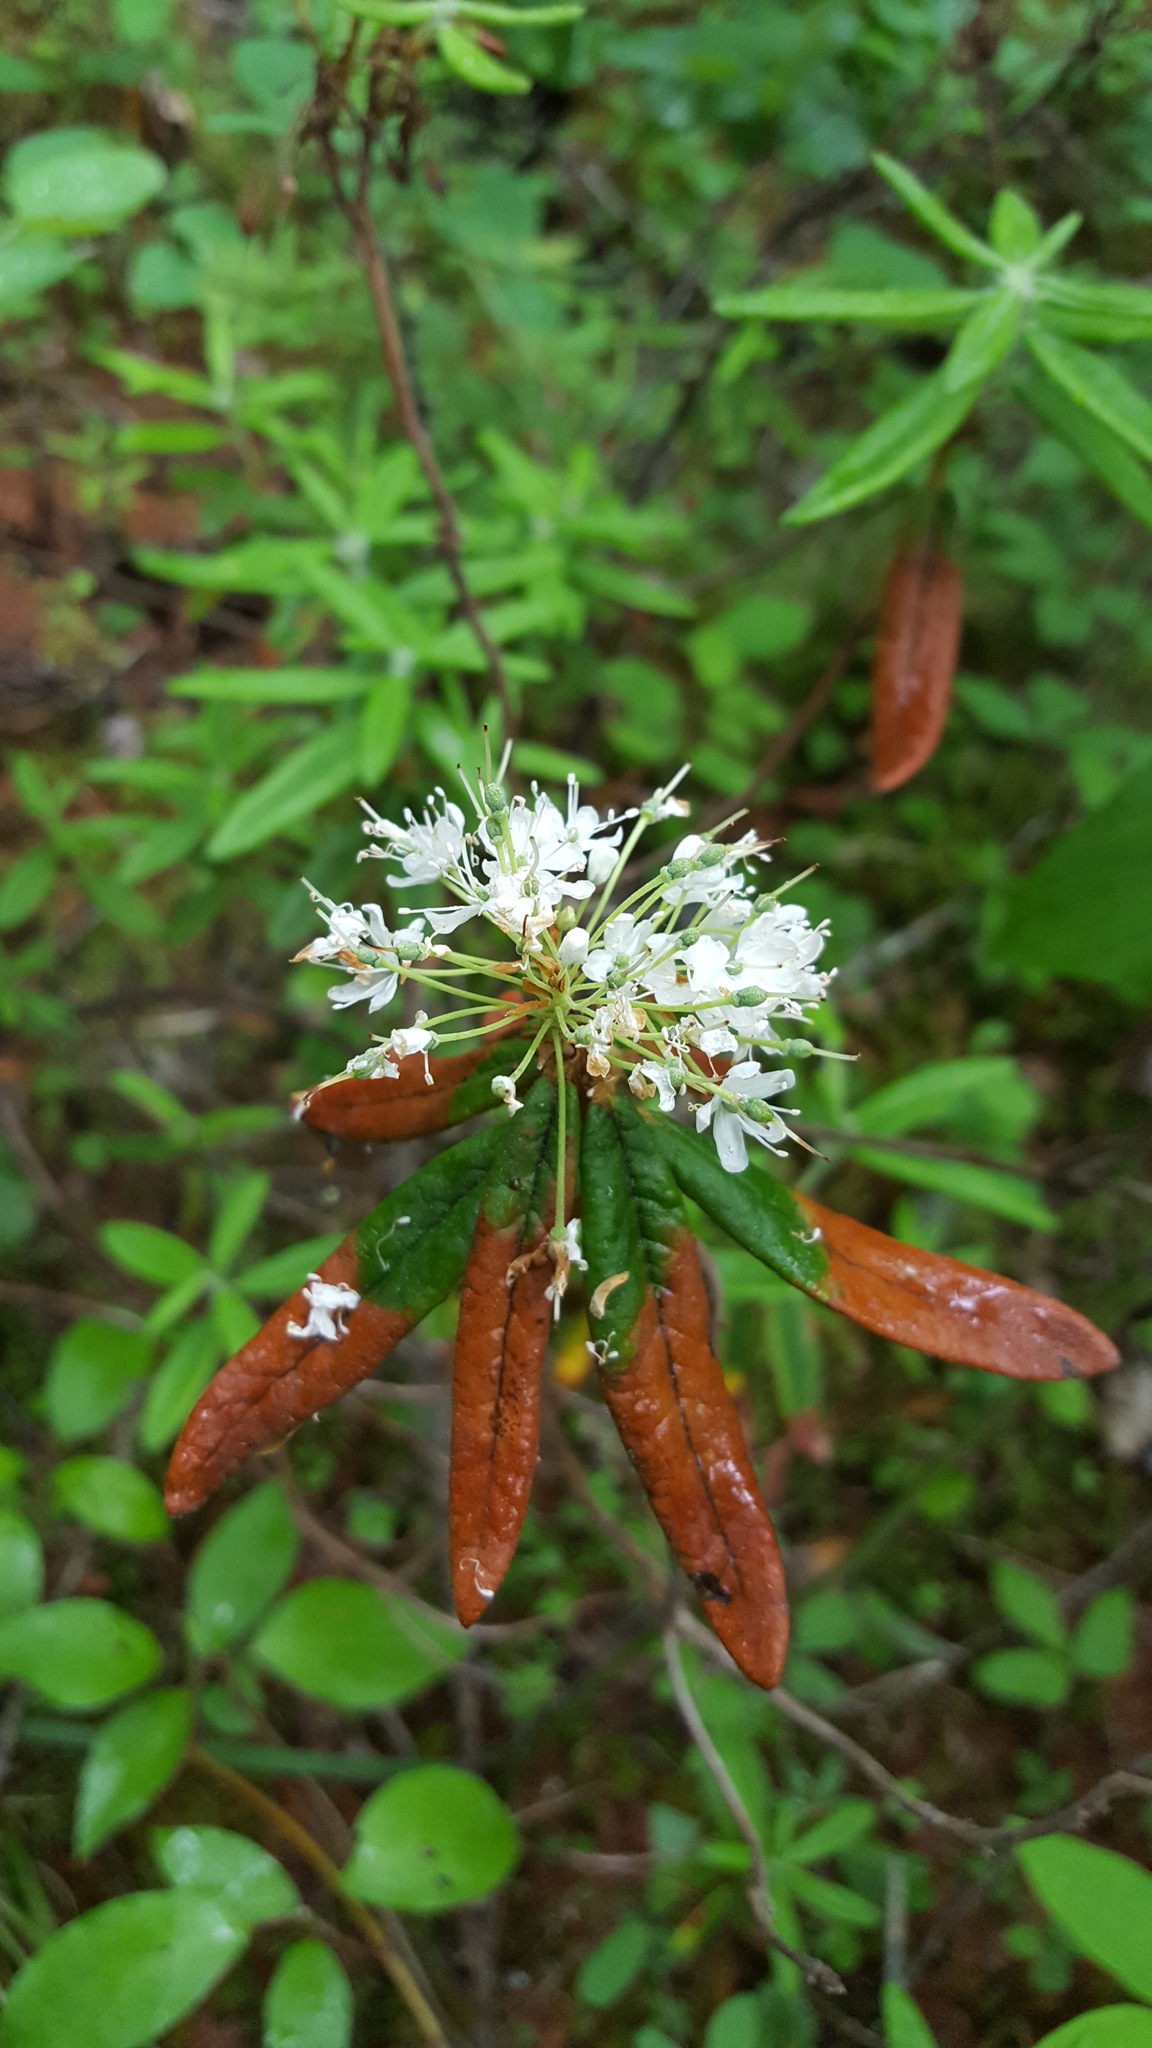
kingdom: Plantae
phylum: Tracheophyta
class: Magnoliopsida
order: Ericales
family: Ericaceae
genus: Rhododendron
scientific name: Rhododendron groenlandicum
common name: Bog labrador tea
